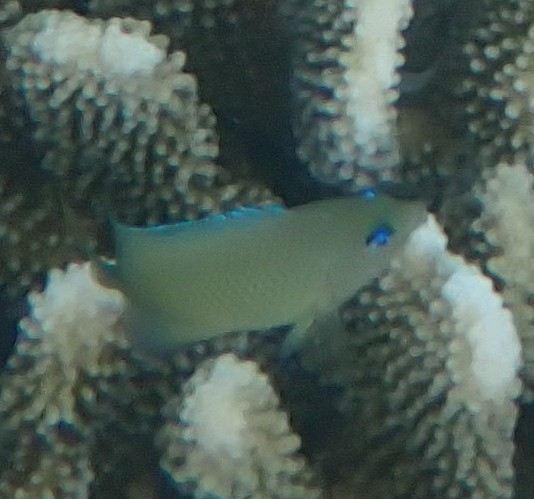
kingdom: Animalia
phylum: Chordata
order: Perciformes
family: Pomacentridae
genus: Plectroglyphidodon
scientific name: Plectroglyphidodon johnstonianus
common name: Johnston damsel
